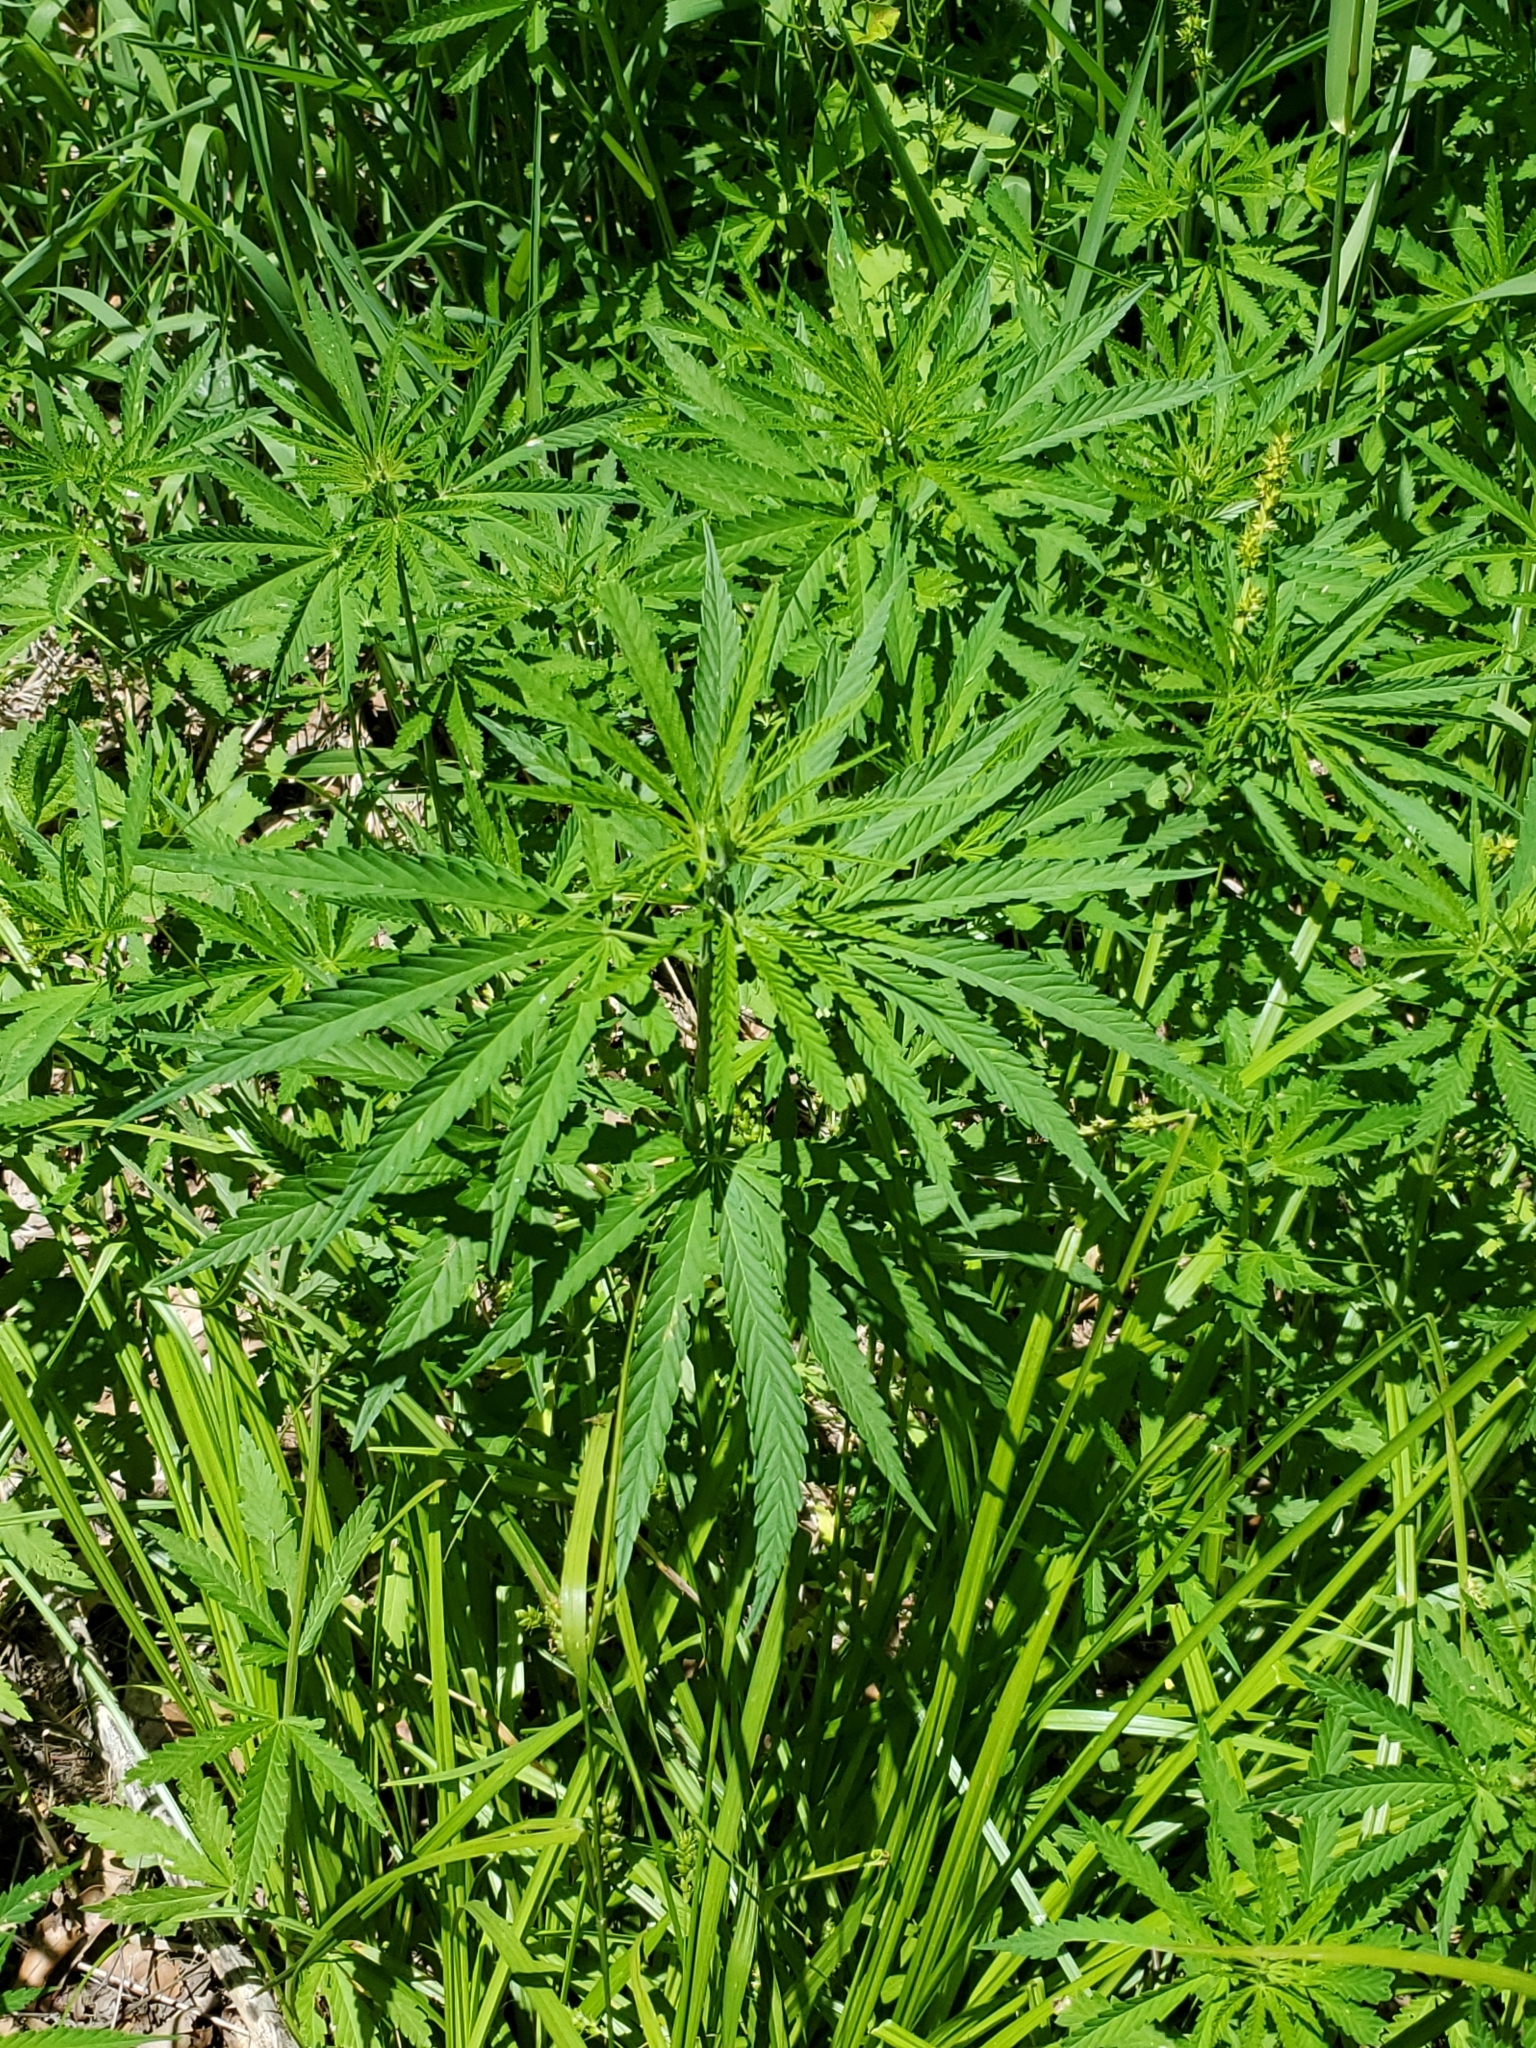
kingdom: Plantae
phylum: Tracheophyta
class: Magnoliopsida
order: Rosales
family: Cannabaceae
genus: Cannabis
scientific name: Cannabis sativa
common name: Hemp
